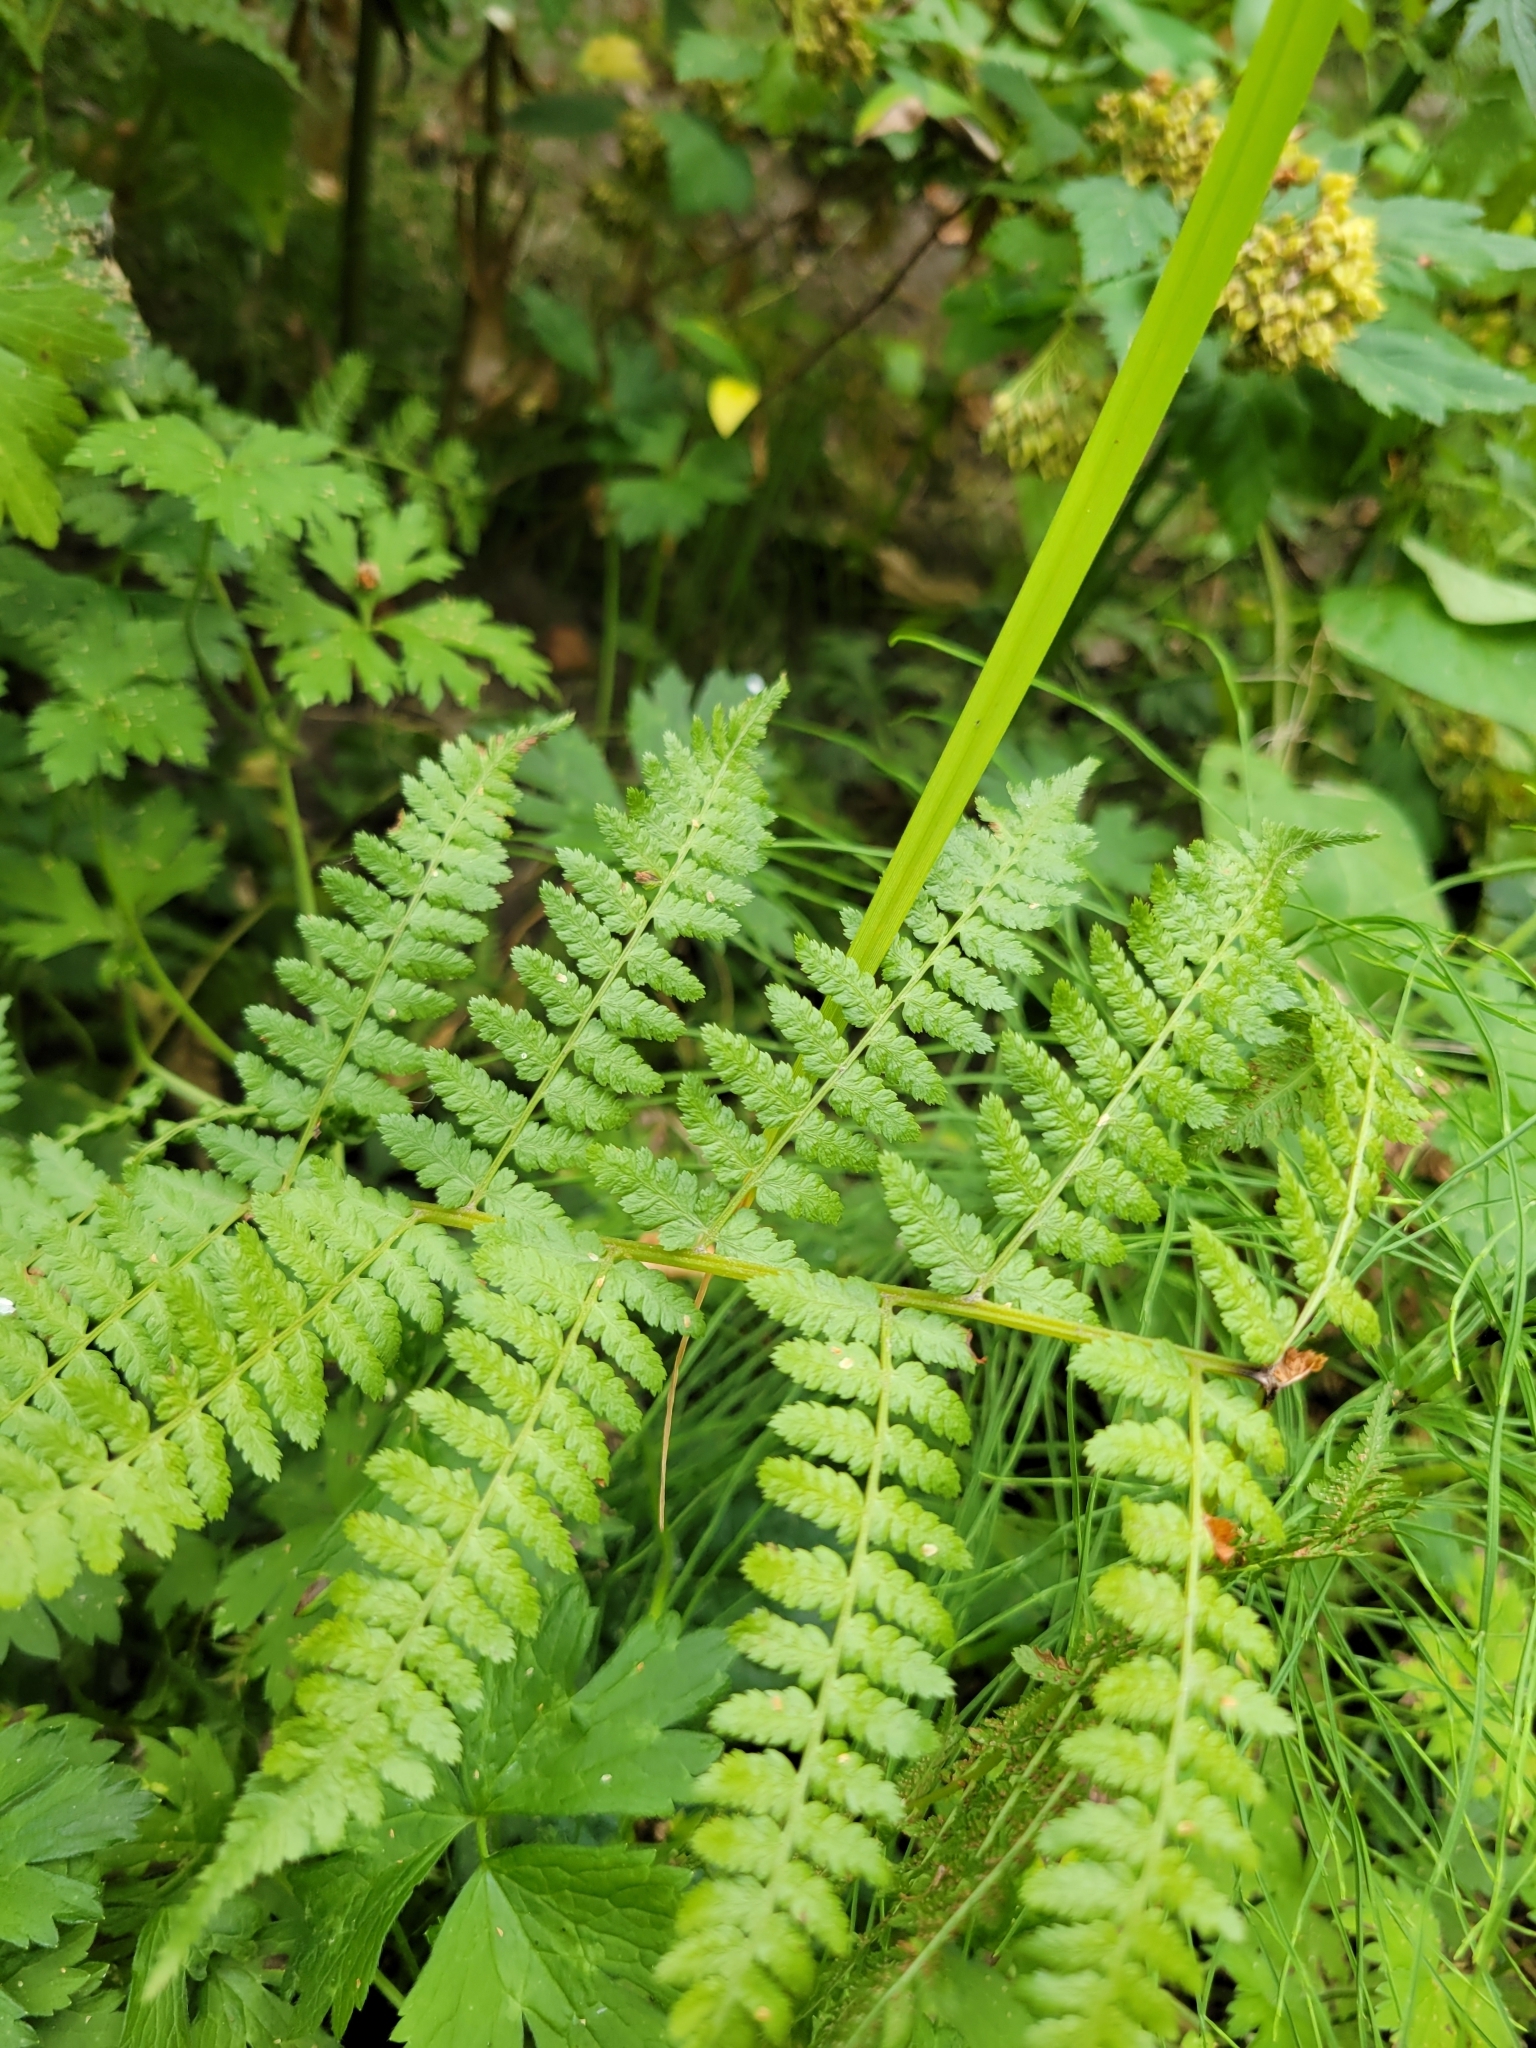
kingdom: Plantae
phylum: Tracheophyta
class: Polypodiopsida
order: Polypodiales
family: Athyriaceae
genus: Athyrium
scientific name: Athyrium filix-femina
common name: Lady fern
